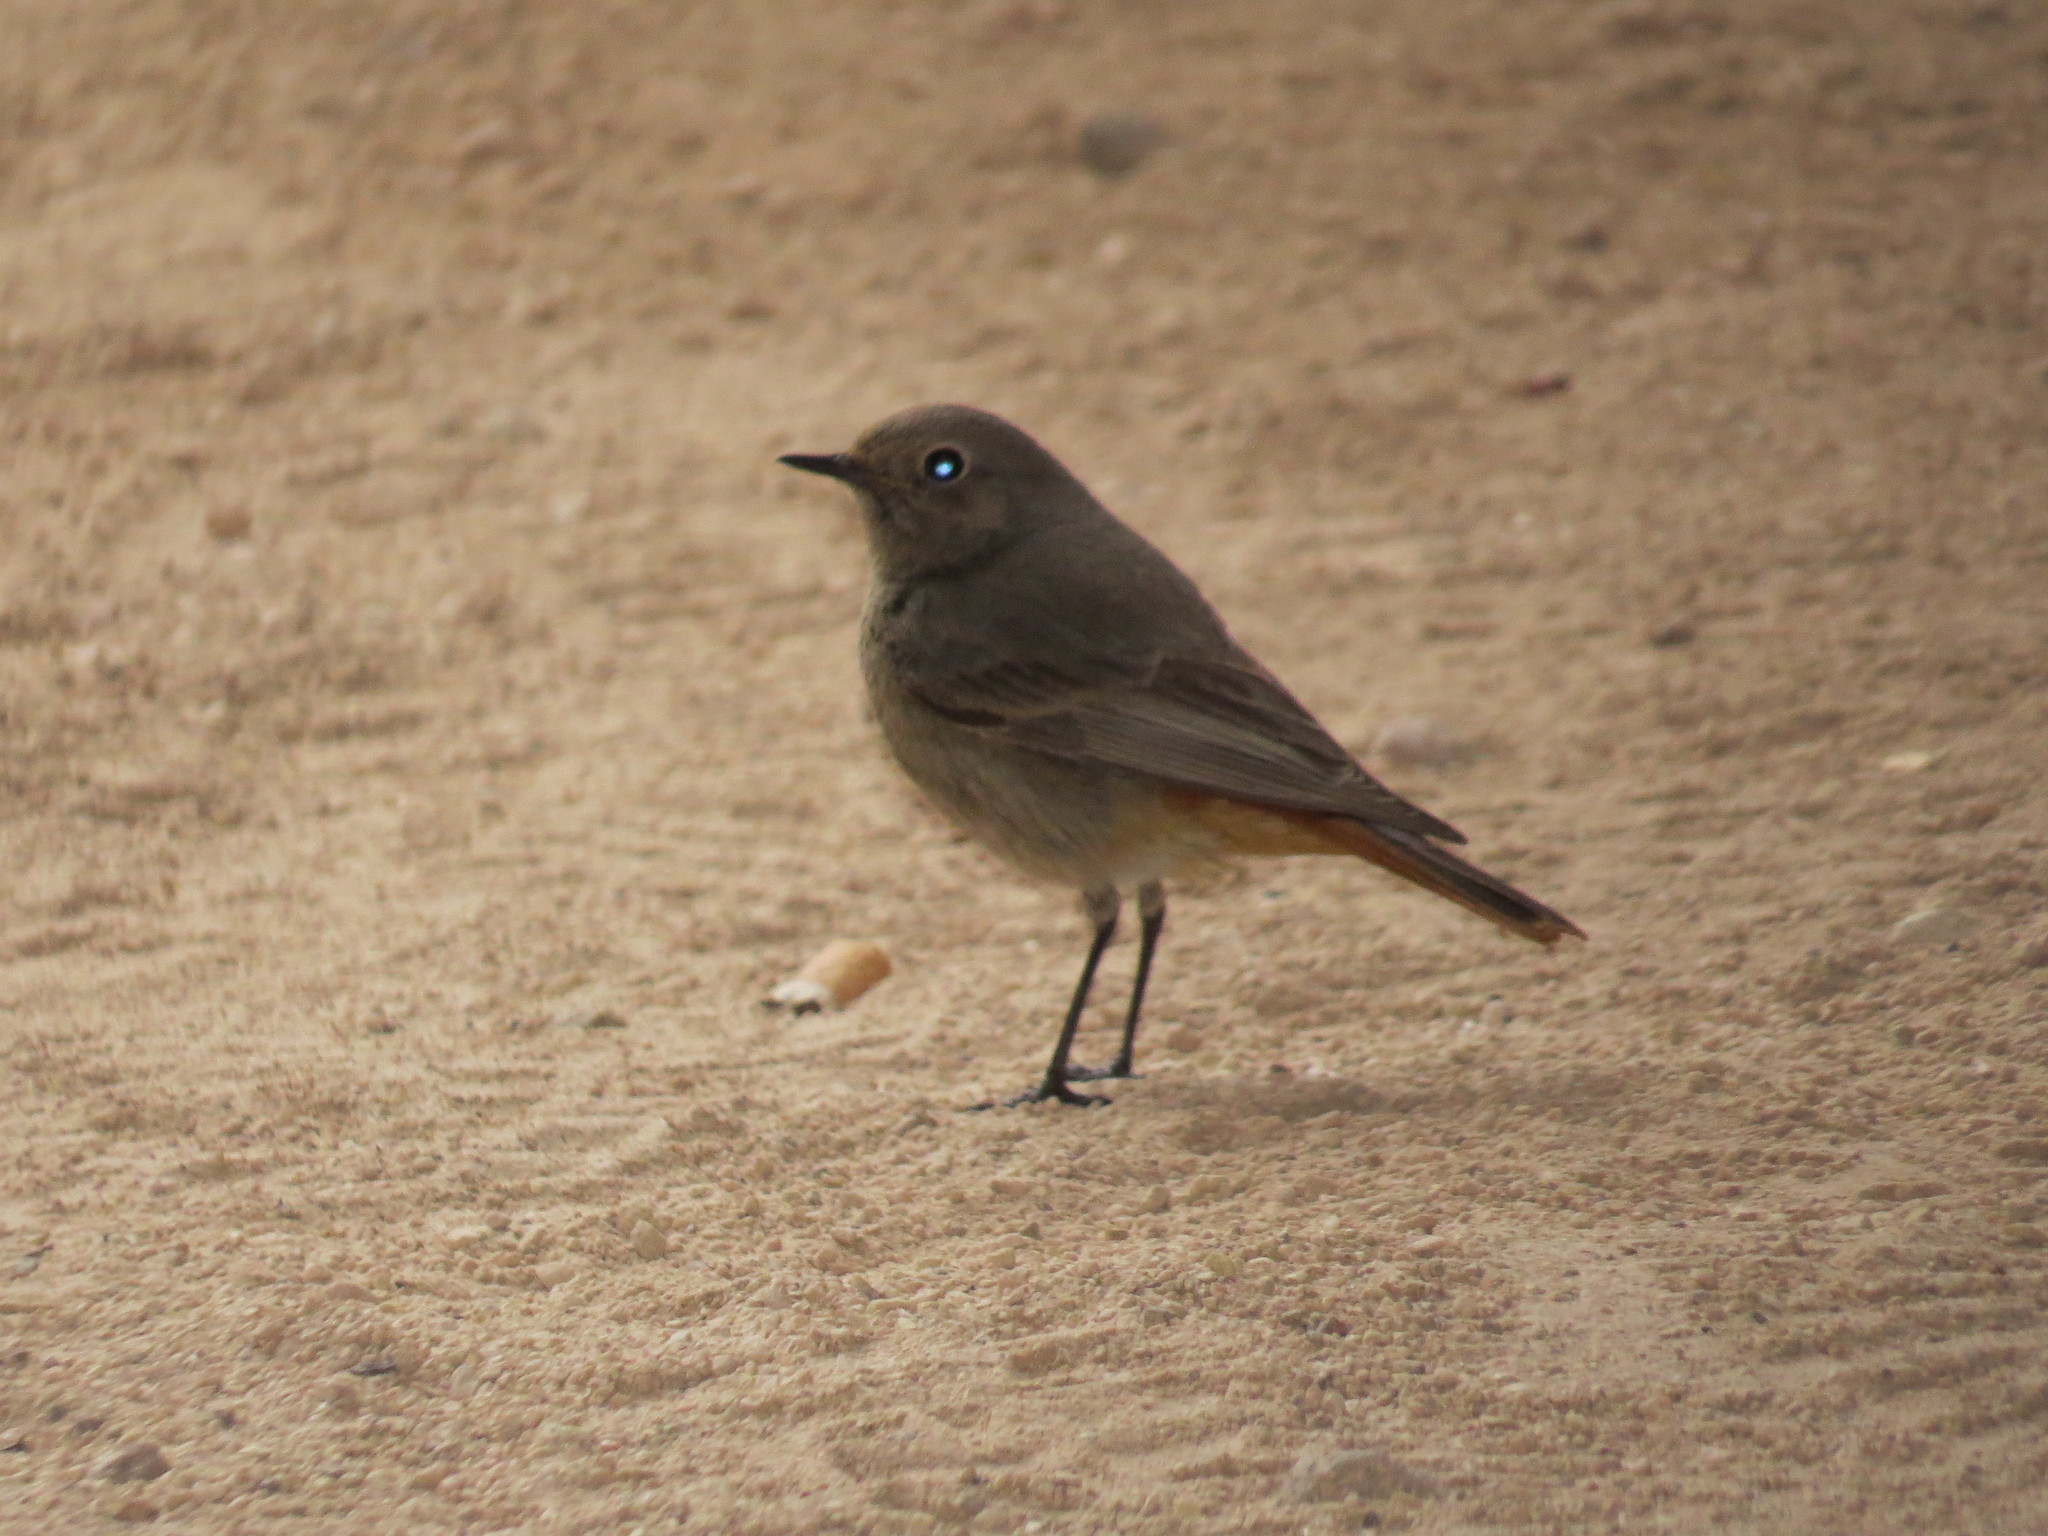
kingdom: Animalia
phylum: Chordata
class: Aves
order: Passeriformes
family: Muscicapidae
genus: Phoenicurus
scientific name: Phoenicurus ochruros
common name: Black redstart
